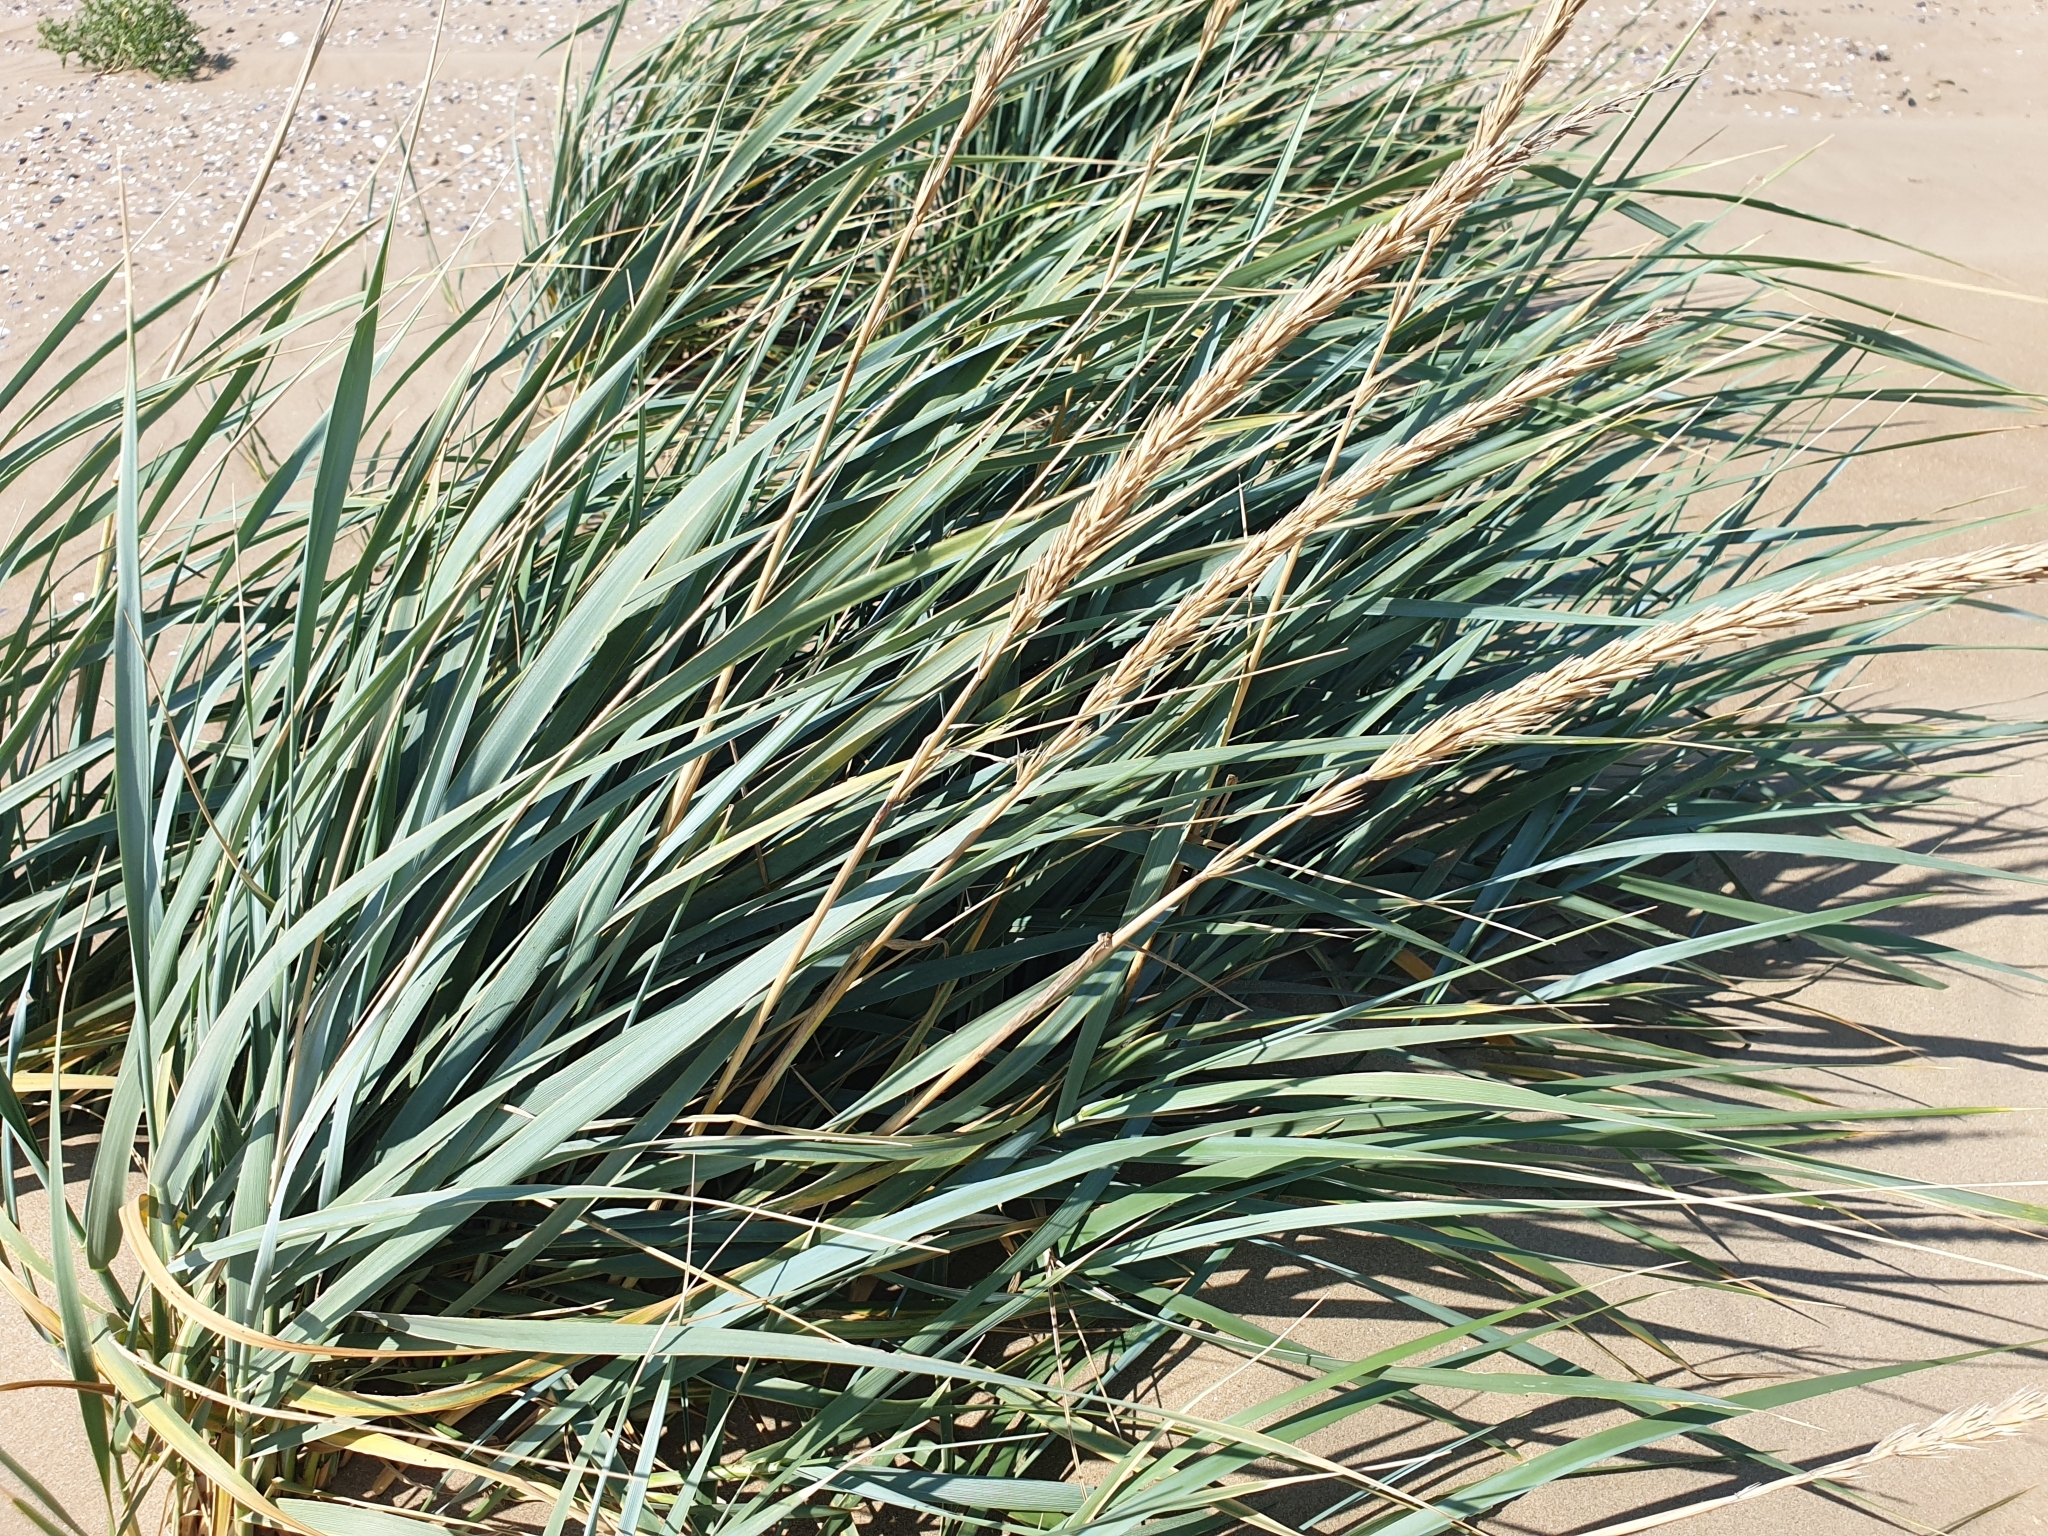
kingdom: Plantae
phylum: Tracheophyta
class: Liliopsida
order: Poales
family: Poaceae
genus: Leymus
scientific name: Leymus arenarius
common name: Lyme-grass
